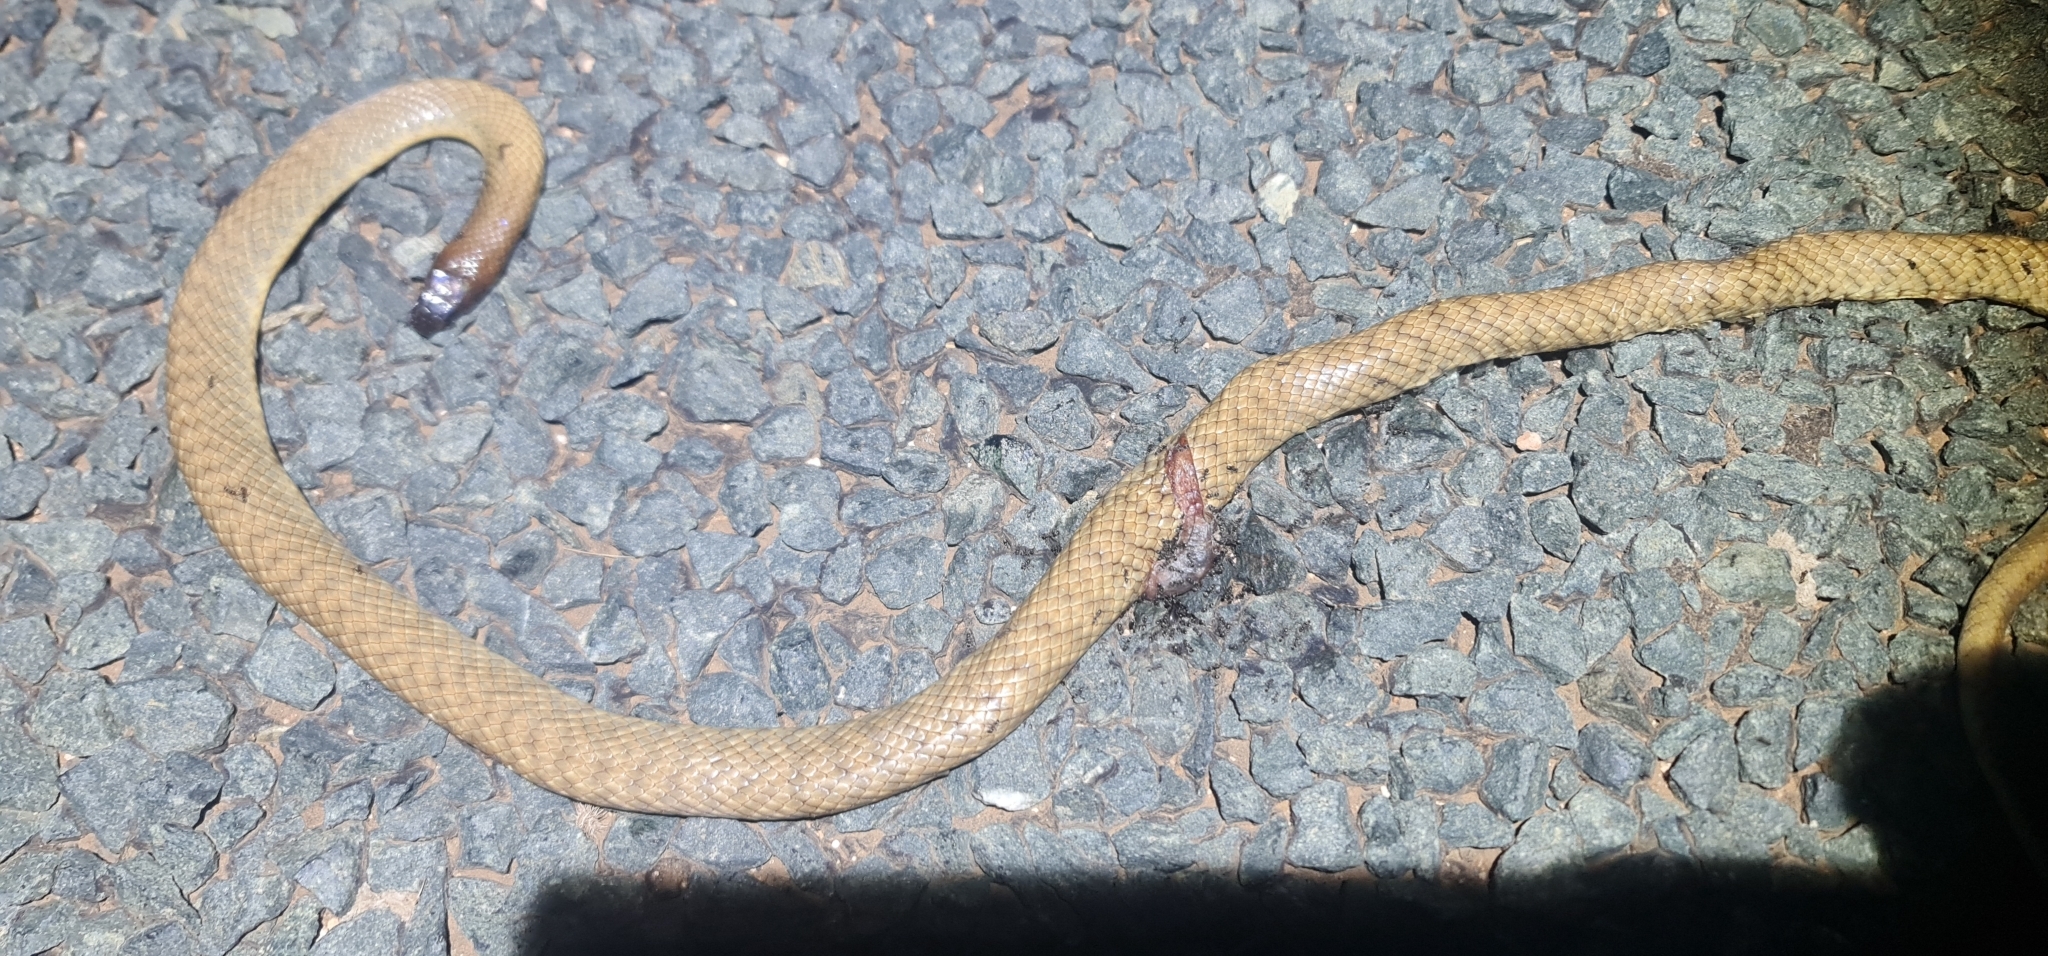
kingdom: Animalia
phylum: Chordata
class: Squamata
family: Elapidae
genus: Pseudonaja
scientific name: Pseudonaja aspidorhyncha
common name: Strap-snouted brown snake
